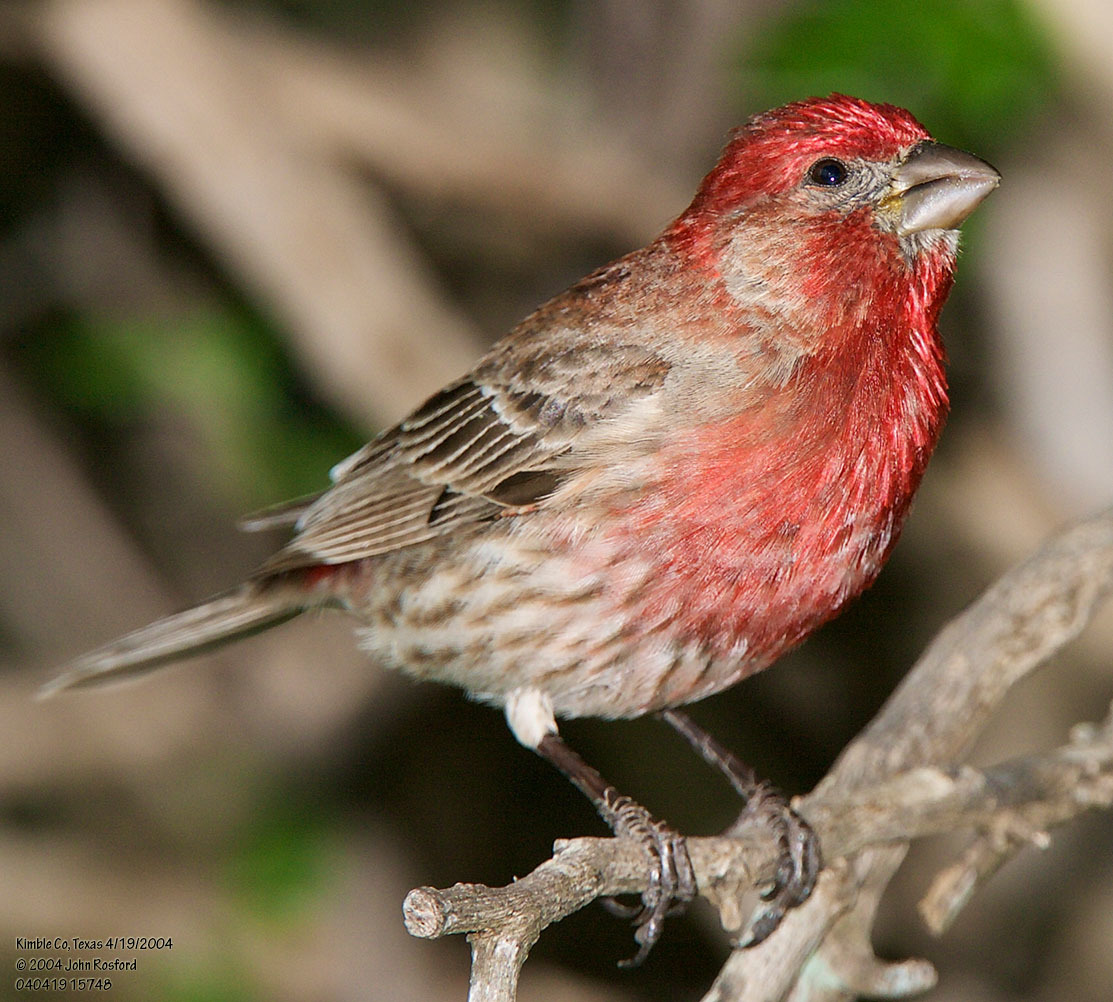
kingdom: Animalia
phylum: Chordata
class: Aves
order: Passeriformes
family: Fringillidae
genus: Haemorhous
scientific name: Haemorhous mexicanus
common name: House finch
